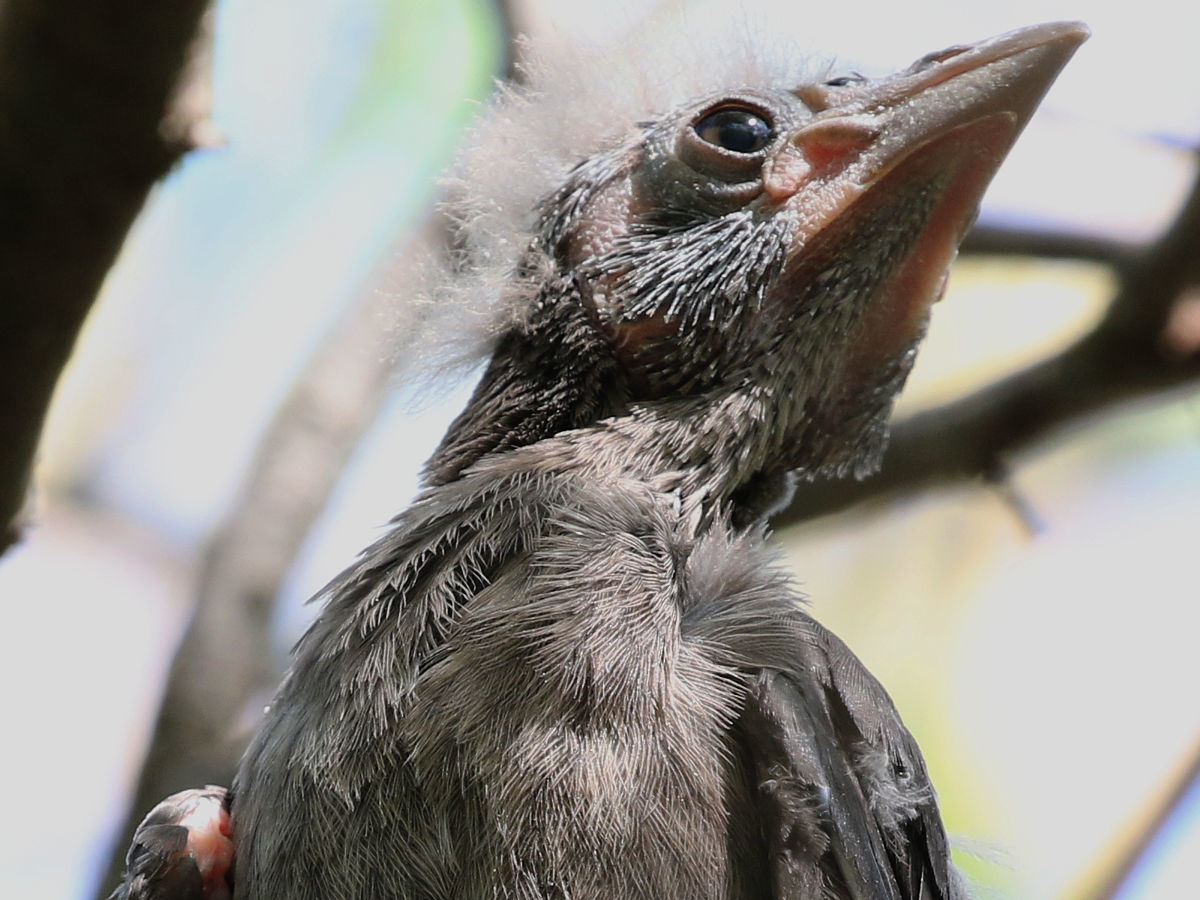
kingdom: Animalia
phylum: Chordata
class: Aves
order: Passeriformes
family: Icteridae
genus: Quiscalus
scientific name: Quiscalus quiscula
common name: Common grackle
